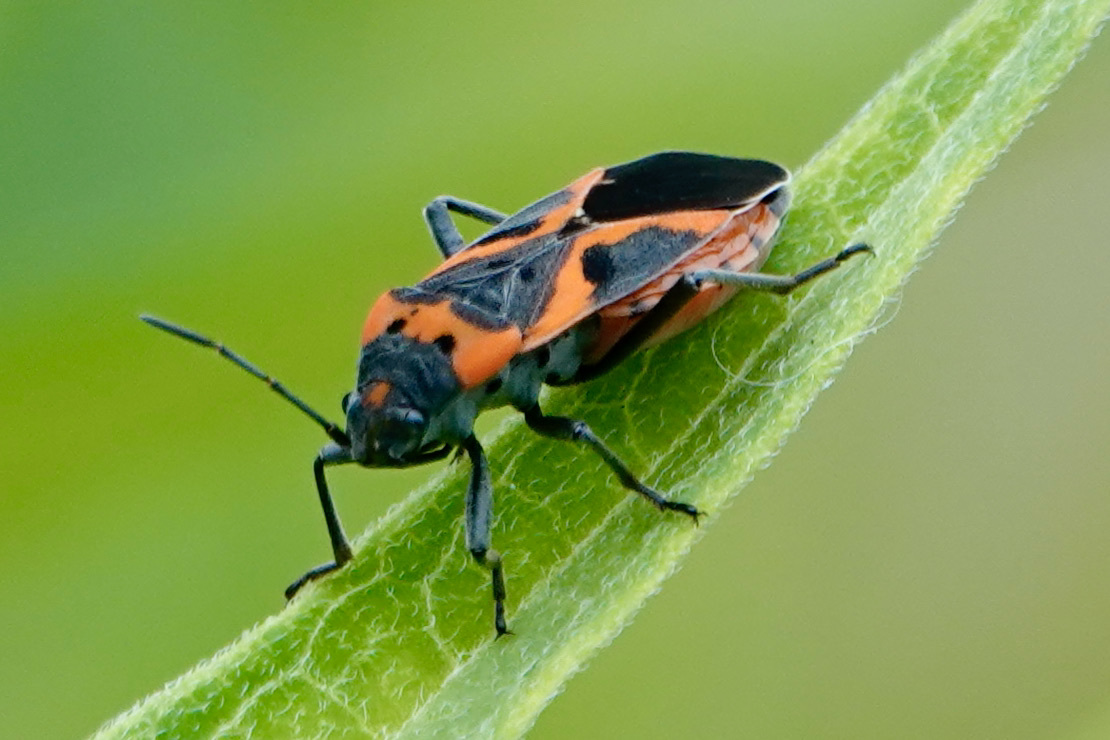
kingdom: Animalia
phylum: Arthropoda
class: Insecta
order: Hemiptera
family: Lygaeidae
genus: Lygaeus
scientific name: Lygaeus kalmii
